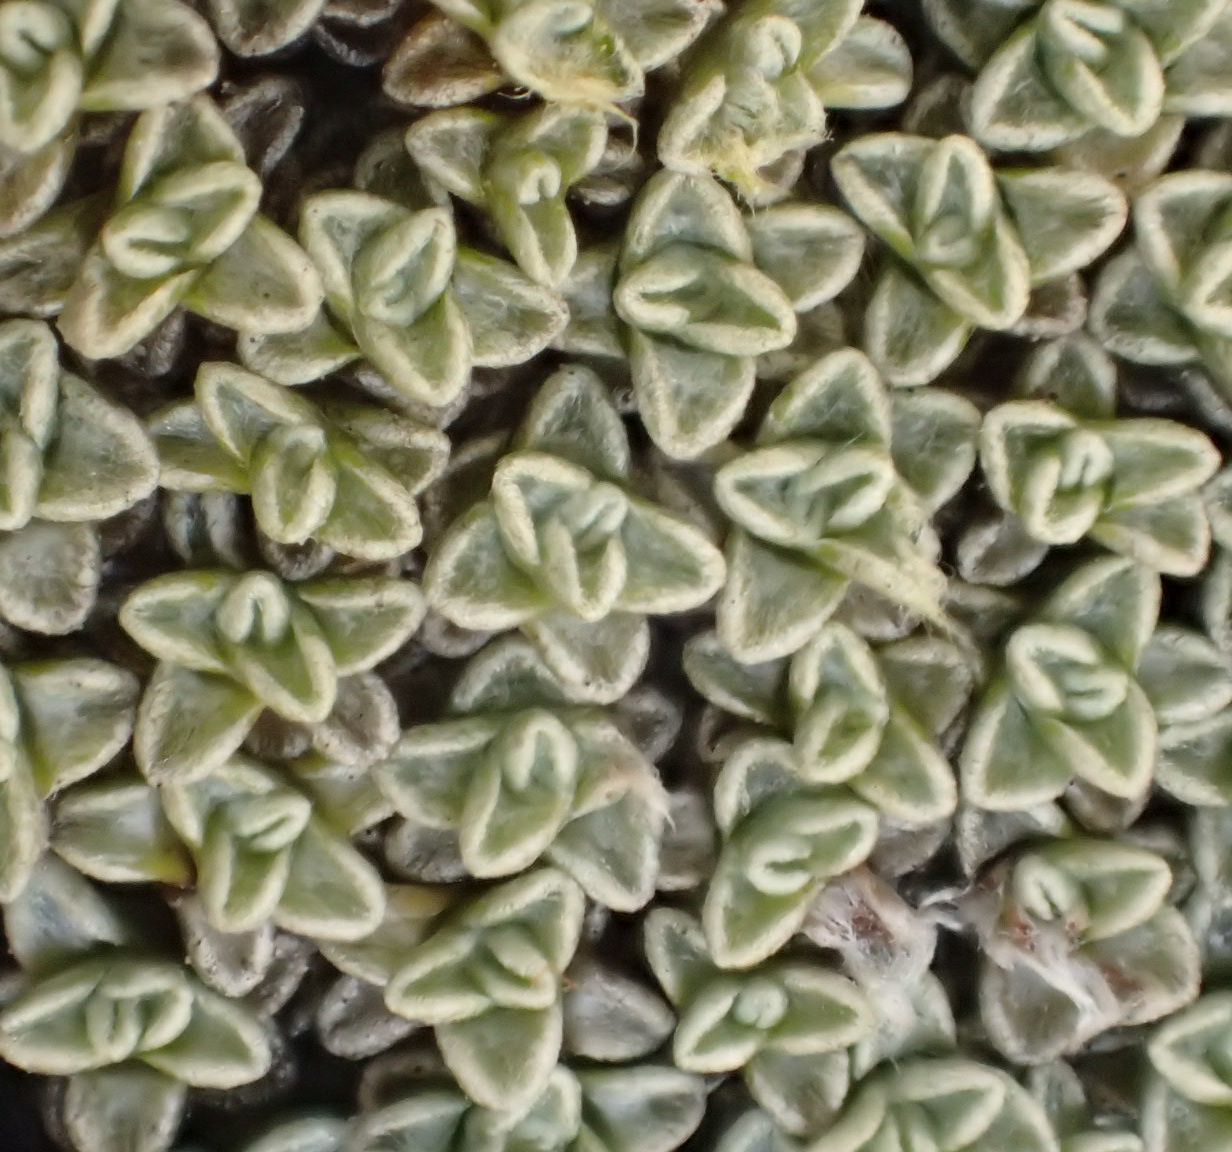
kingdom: Plantae
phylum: Tracheophyta
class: Magnoliopsida
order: Asterales
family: Asteraceae
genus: Raoulia
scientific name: Raoulia australis
